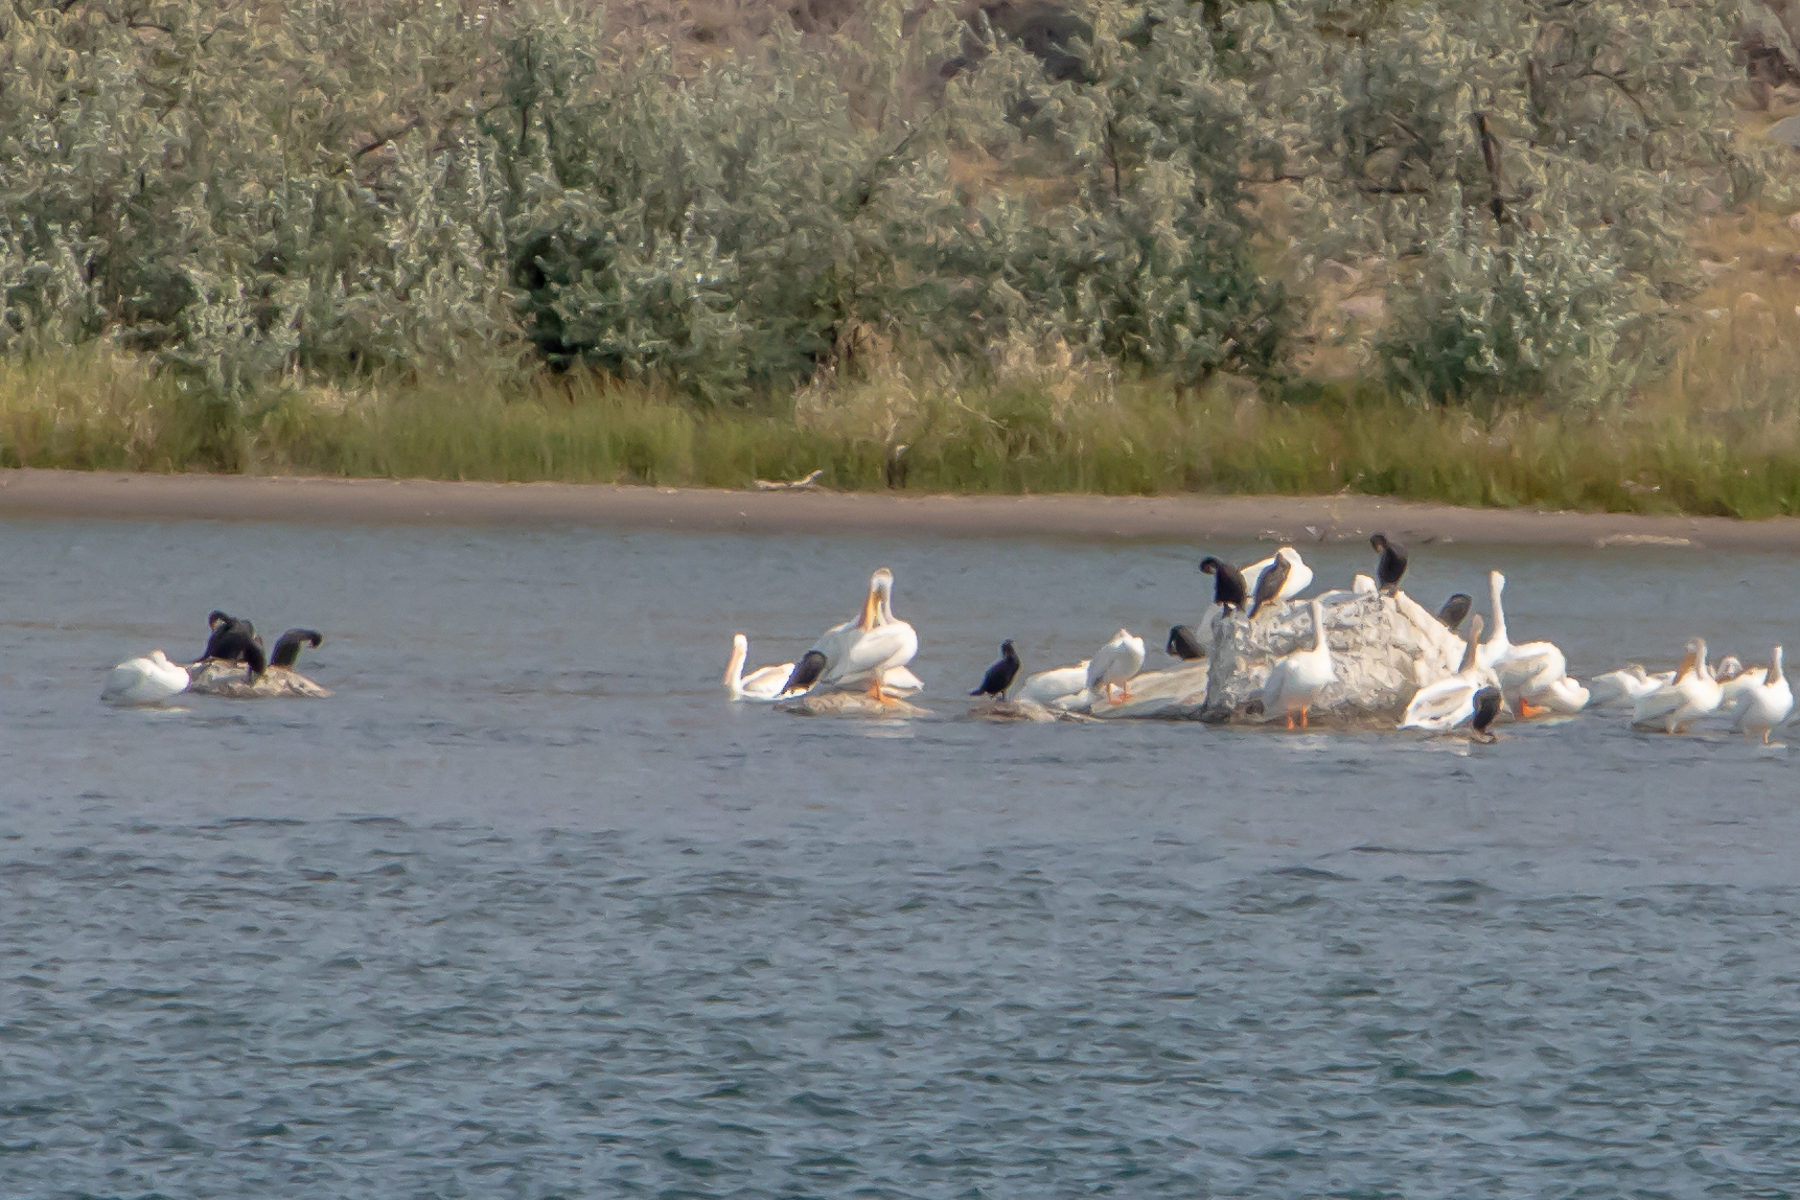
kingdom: Animalia
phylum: Chordata
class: Aves
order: Suliformes
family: Phalacrocoracidae
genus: Phalacrocorax
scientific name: Phalacrocorax auritus
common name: Double-crested cormorant
